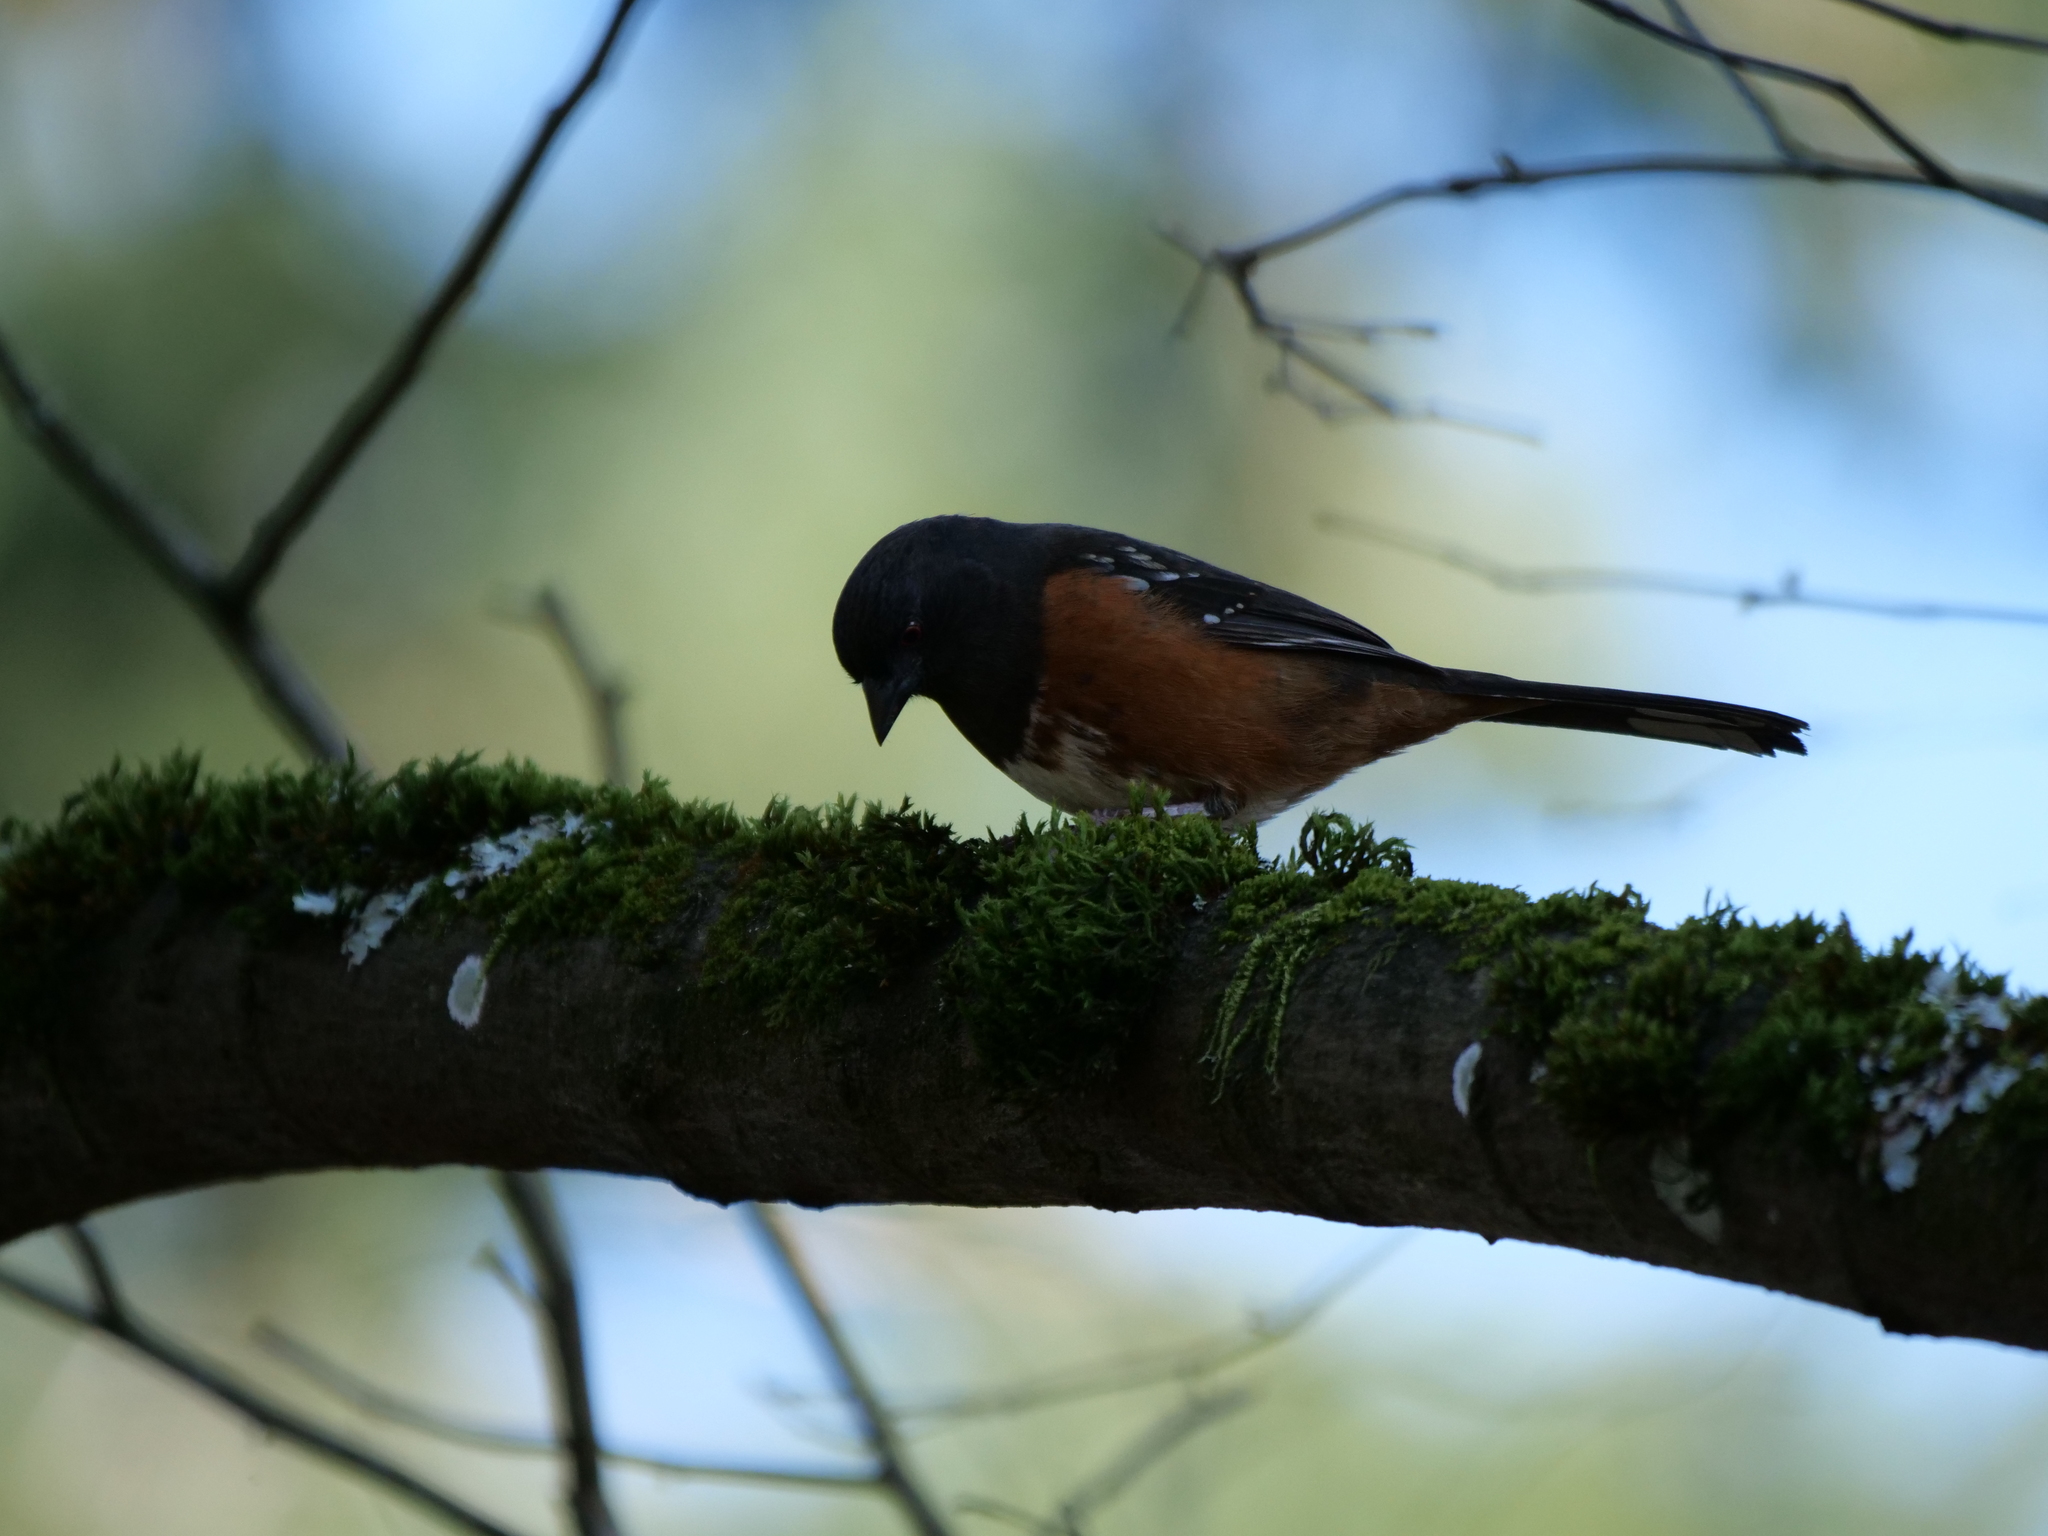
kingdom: Animalia
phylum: Chordata
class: Aves
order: Passeriformes
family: Passerellidae
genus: Pipilo
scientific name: Pipilo maculatus
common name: Spotted towhee
